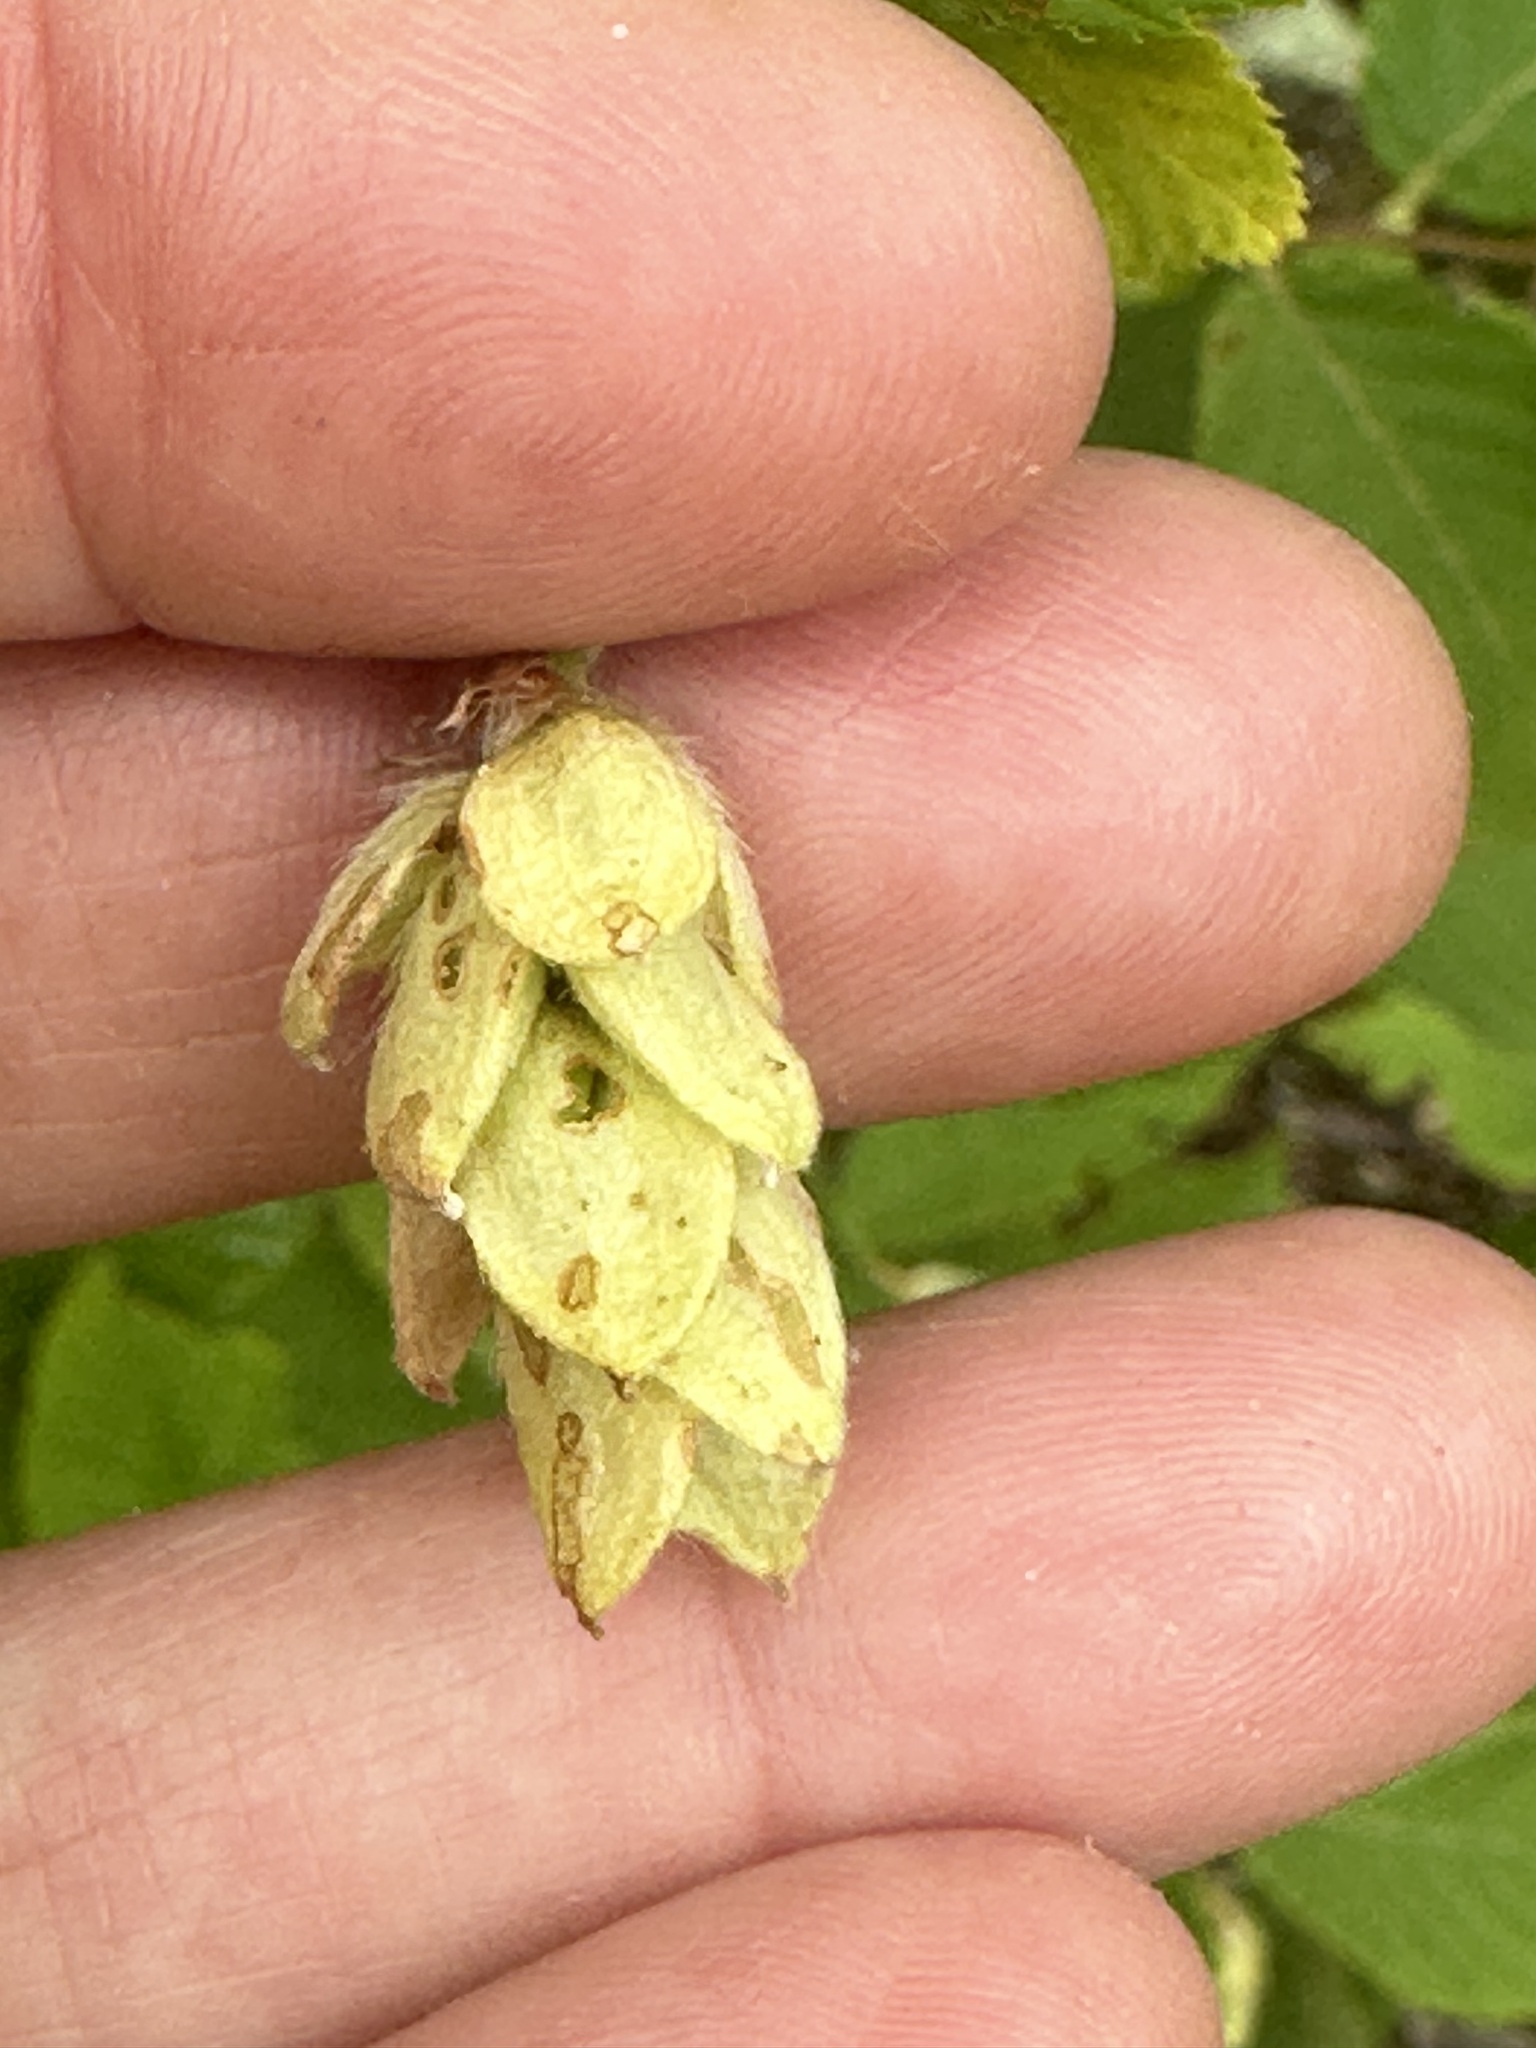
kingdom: Plantae
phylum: Tracheophyta
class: Magnoliopsida
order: Fagales
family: Betulaceae
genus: Ostrya
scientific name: Ostrya virginiana
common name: Ironwood
